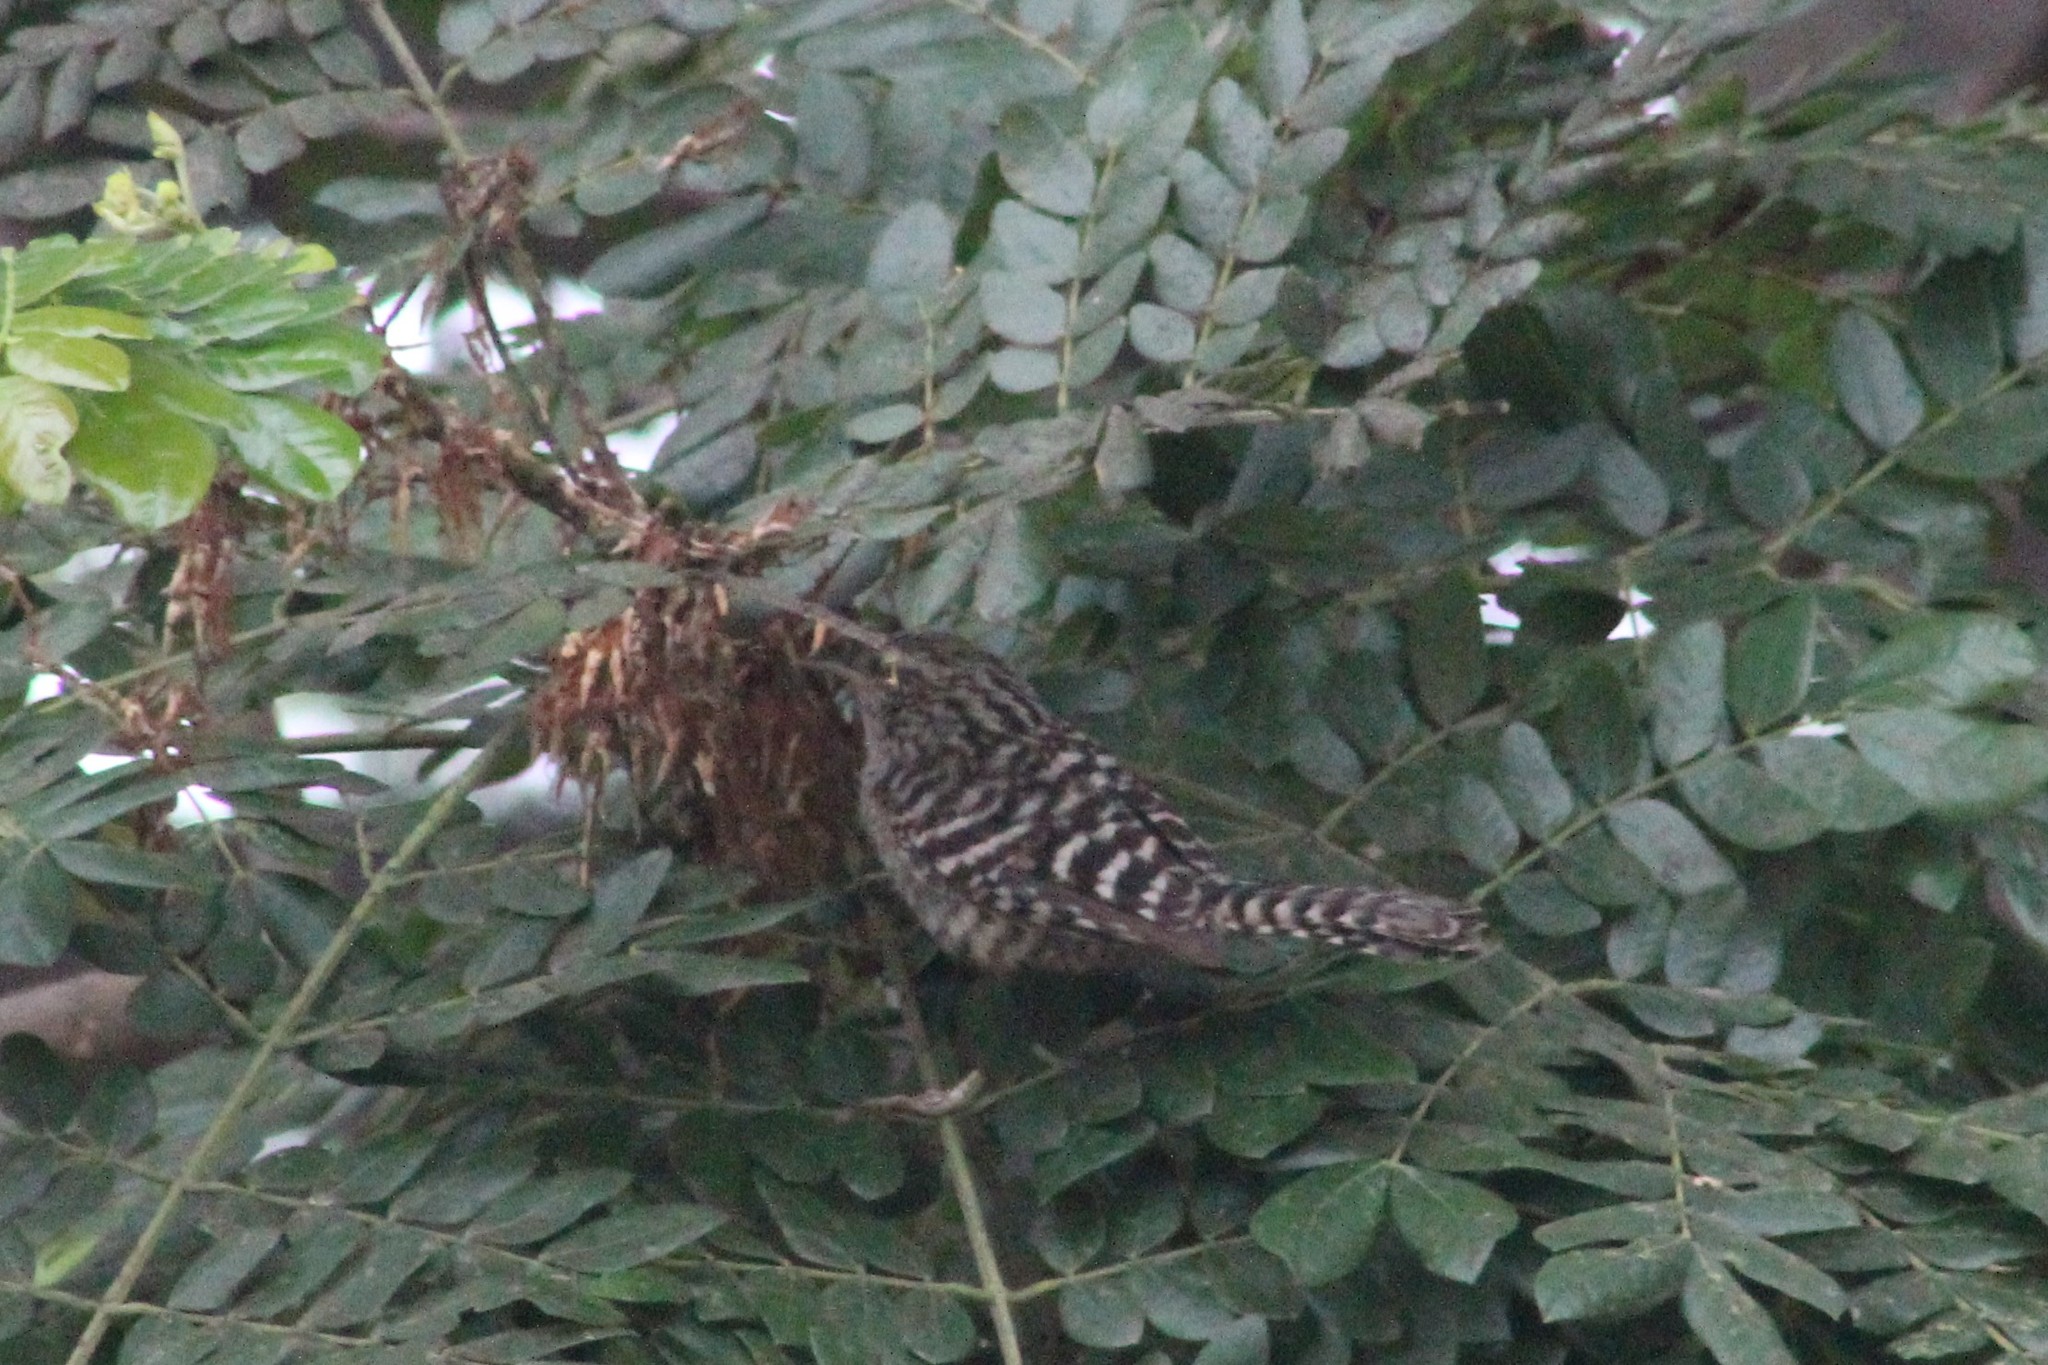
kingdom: Animalia
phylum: Chordata
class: Aves
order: Passeriformes
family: Troglodytidae
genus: Campylorhynchus
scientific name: Campylorhynchus fasciatus
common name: Fasciated wren
